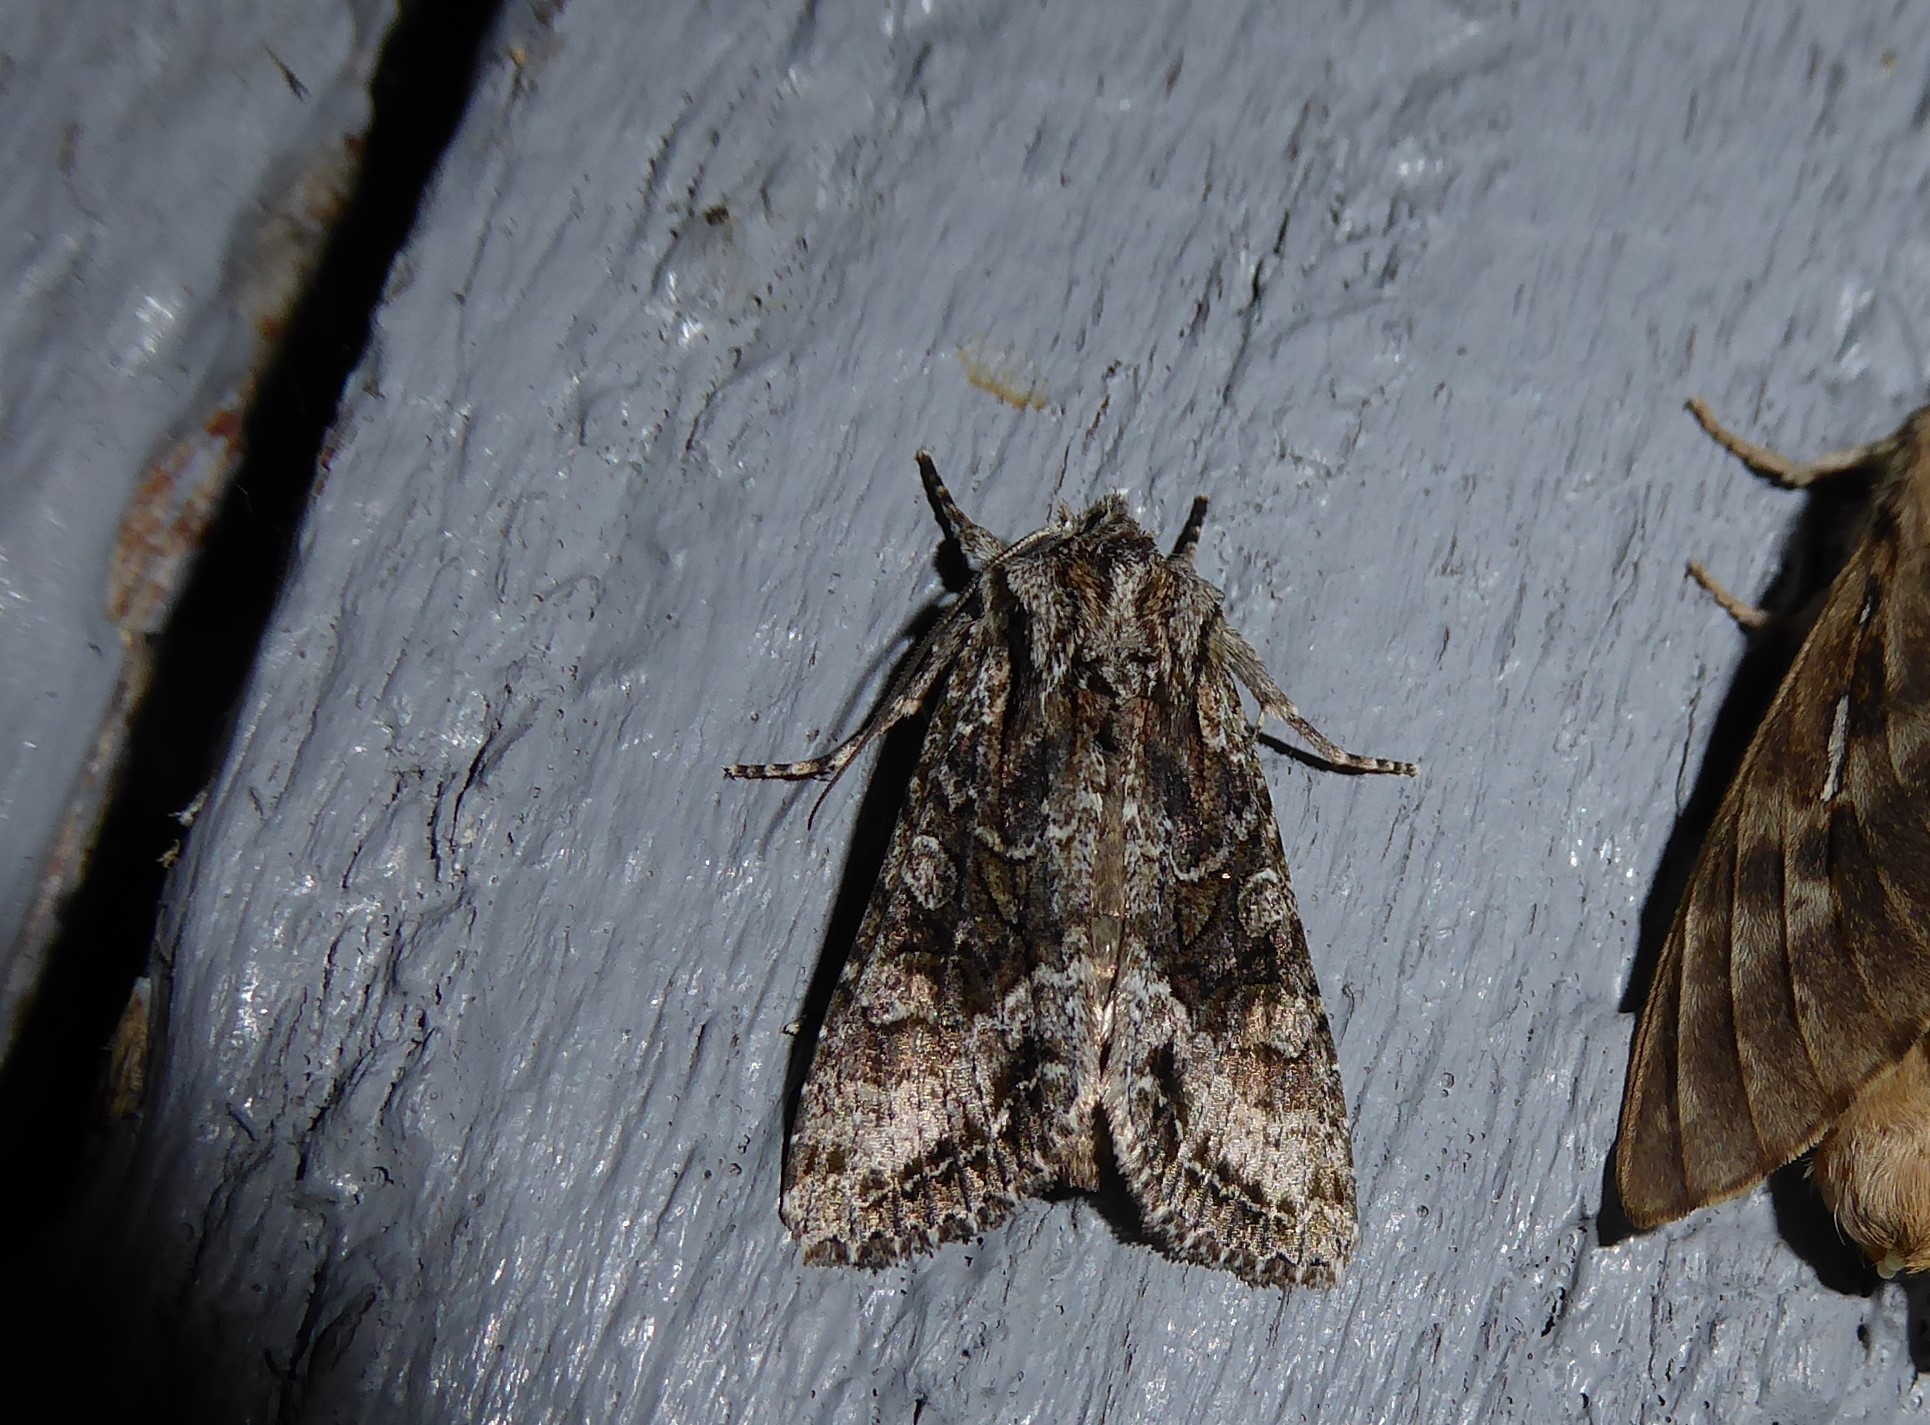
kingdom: Animalia
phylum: Arthropoda
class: Insecta
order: Lepidoptera
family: Noctuidae
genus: Ichneutica
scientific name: Ichneutica mutans
